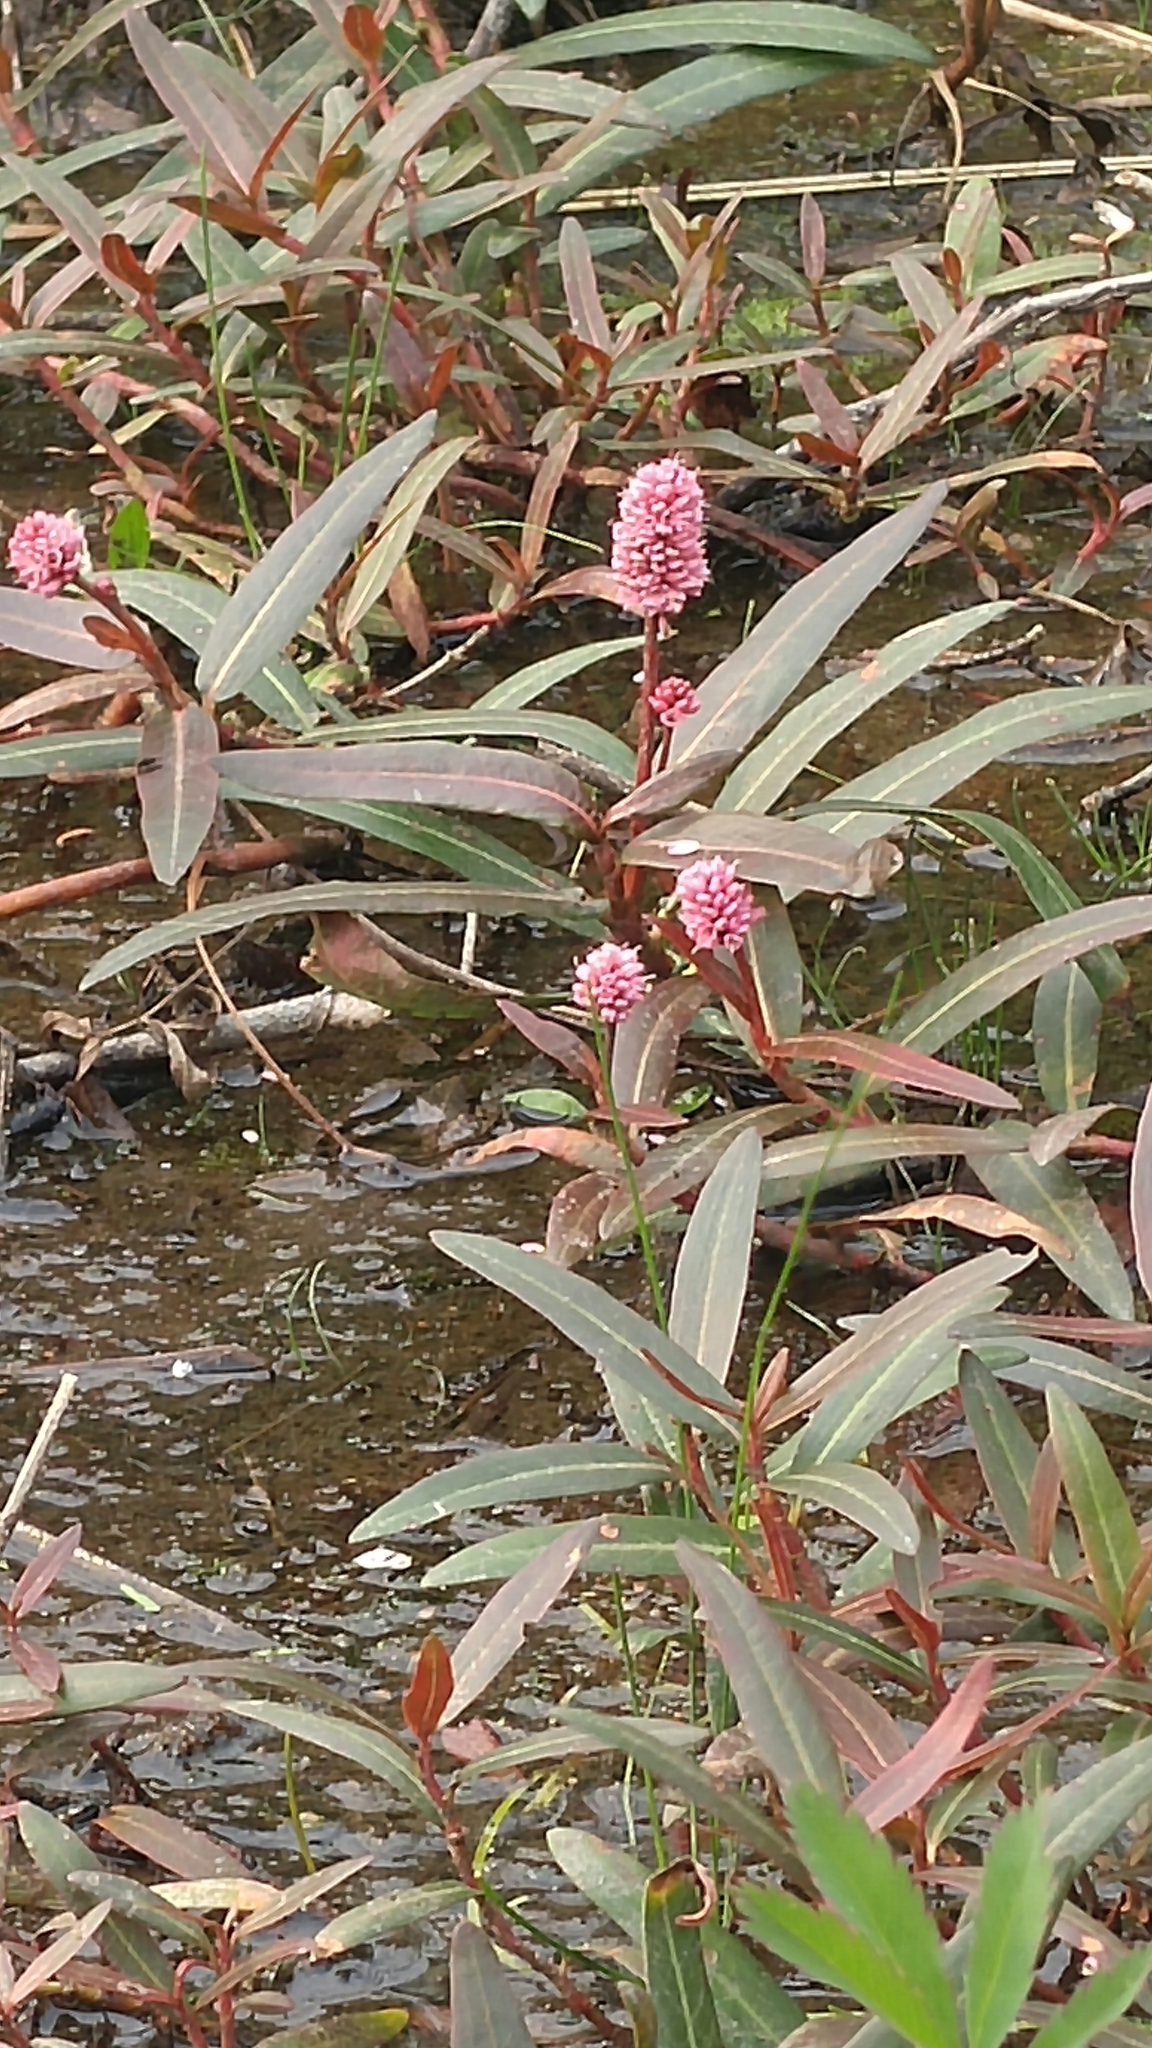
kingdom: Plantae
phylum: Tracheophyta
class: Magnoliopsida
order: Caryophyllales
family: Polygonaceae
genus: Persicaria
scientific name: Persicaria amphibia
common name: Amphibious bistort
